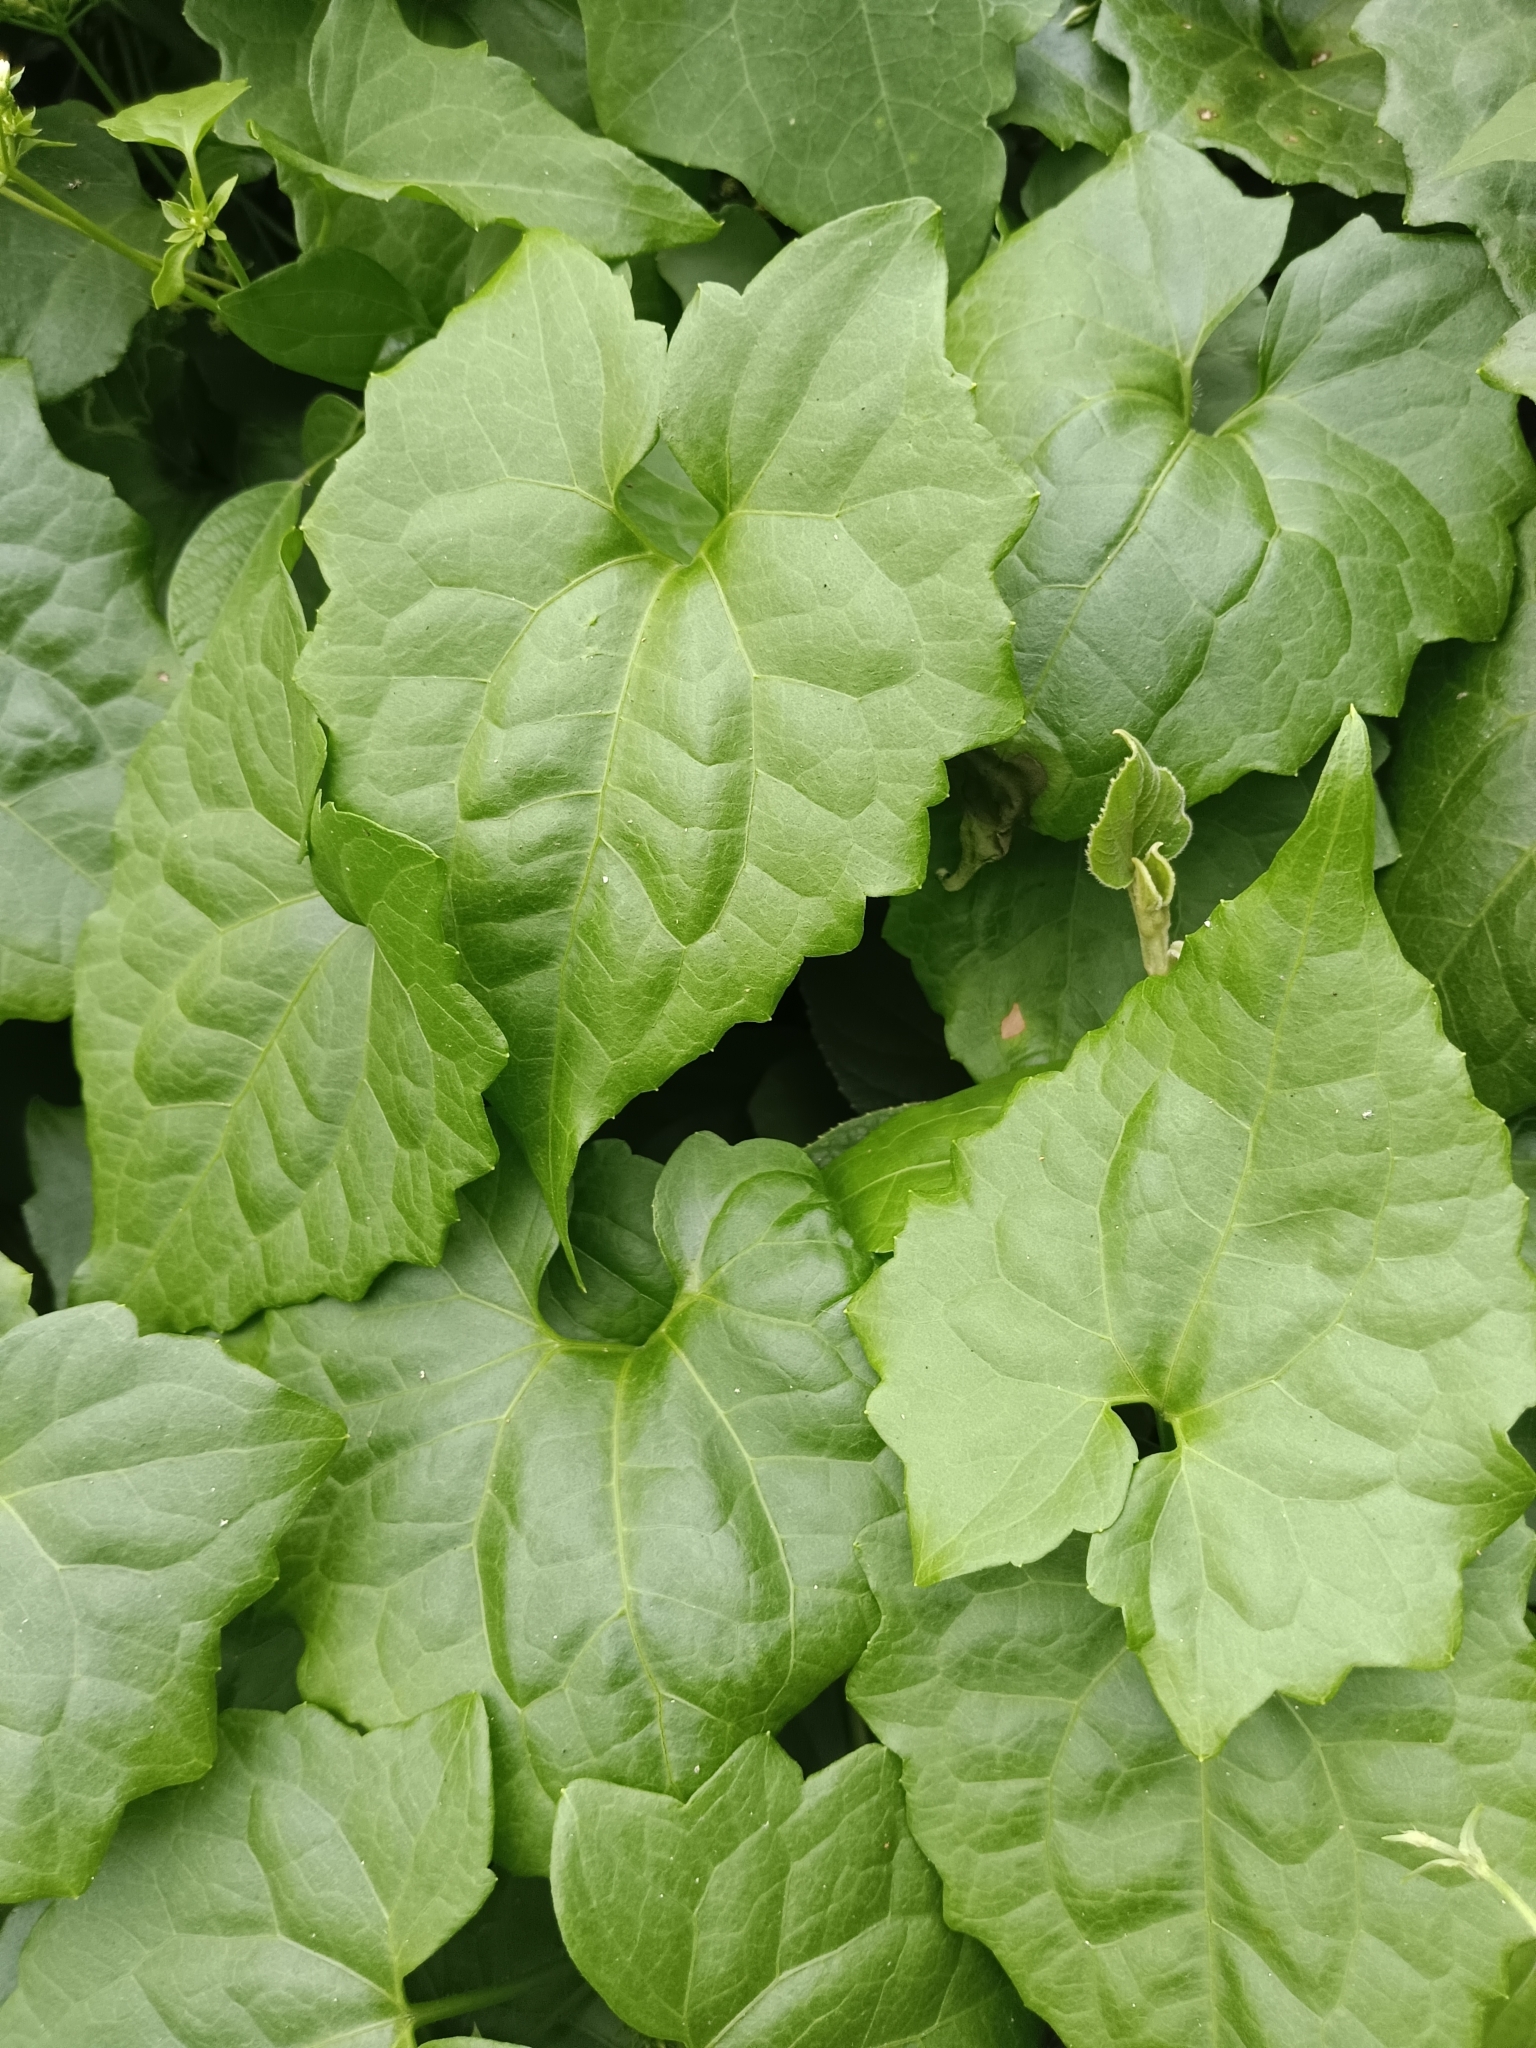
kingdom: Plantae
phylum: Tracheophyta
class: Magnoliopsida
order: Asterales
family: Asteraceae
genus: Mikania
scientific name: Mikania micrantha
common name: Mile-a-minute
